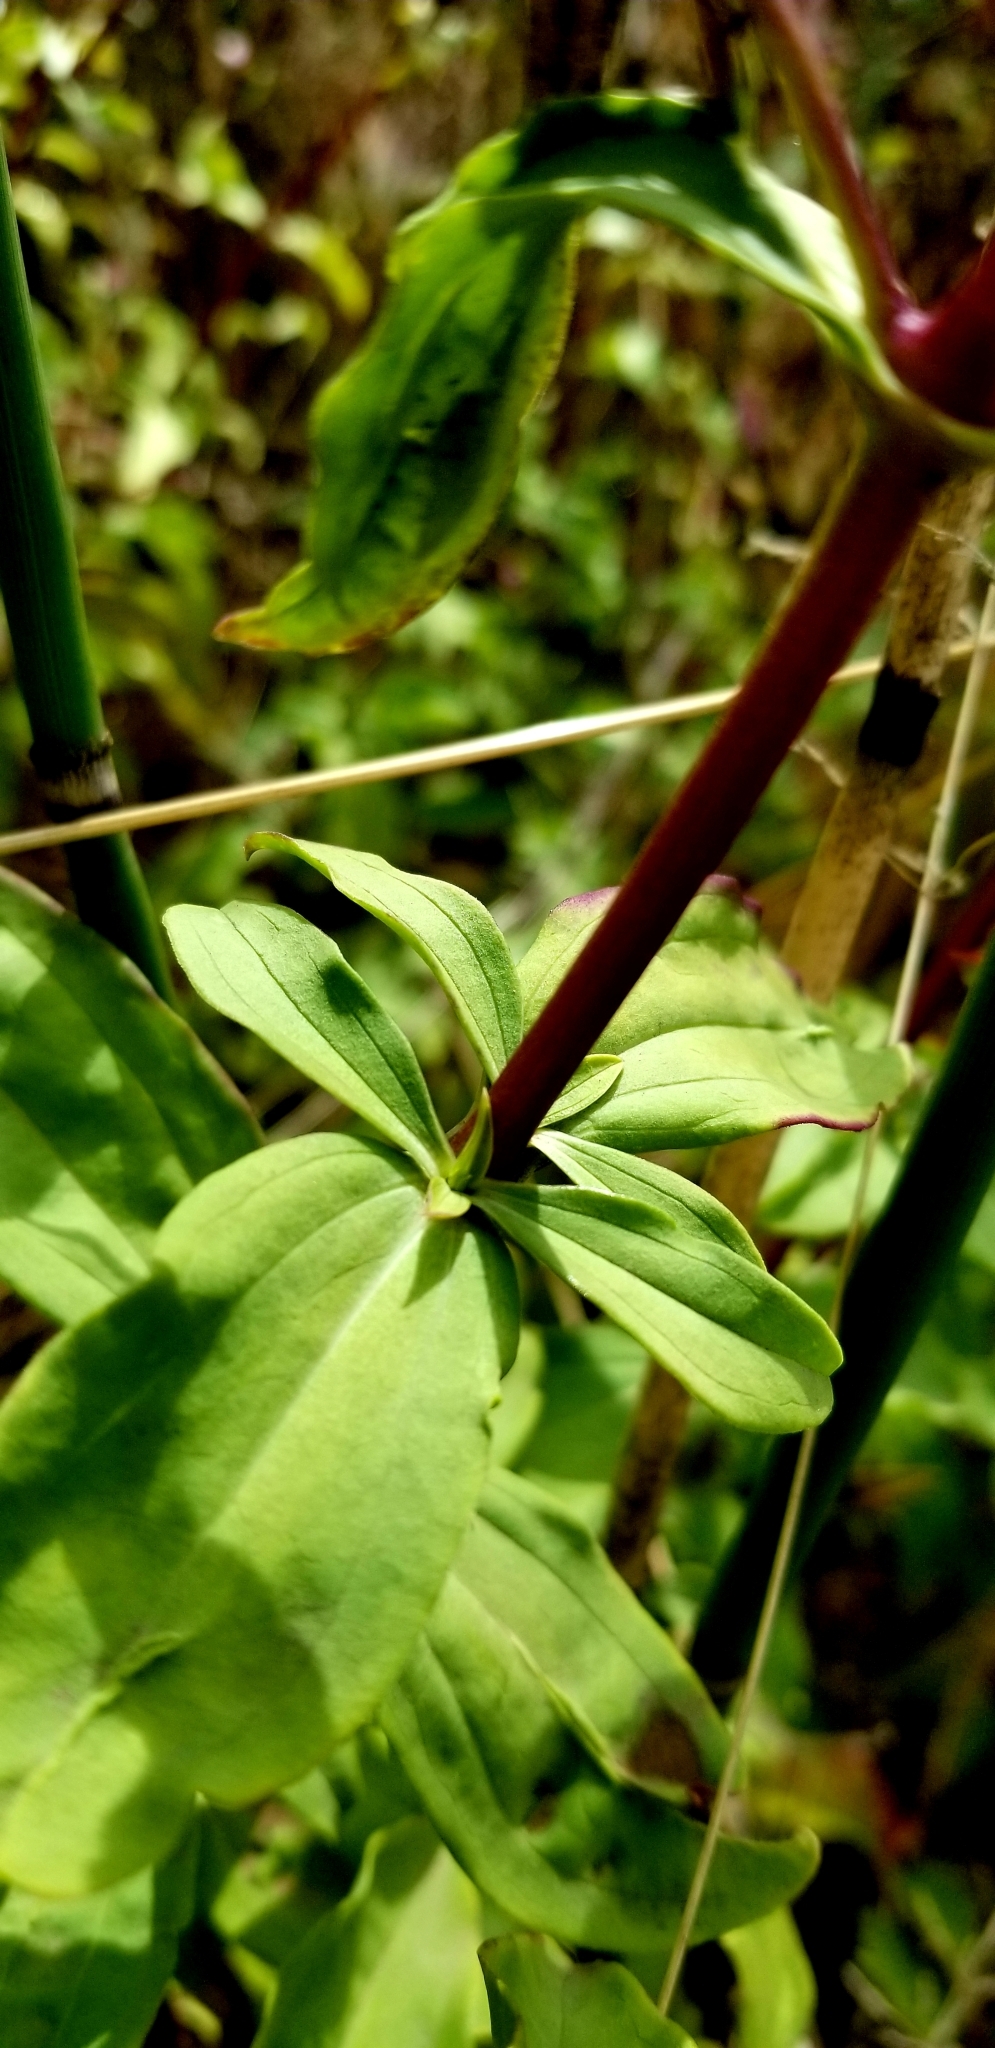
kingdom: Plantae
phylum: Tracheophyta
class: Magnoliopsida
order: Caryophyllales
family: Caryophyllaceae
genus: Saponaria
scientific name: Saponaria officinalis
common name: Soapwort
